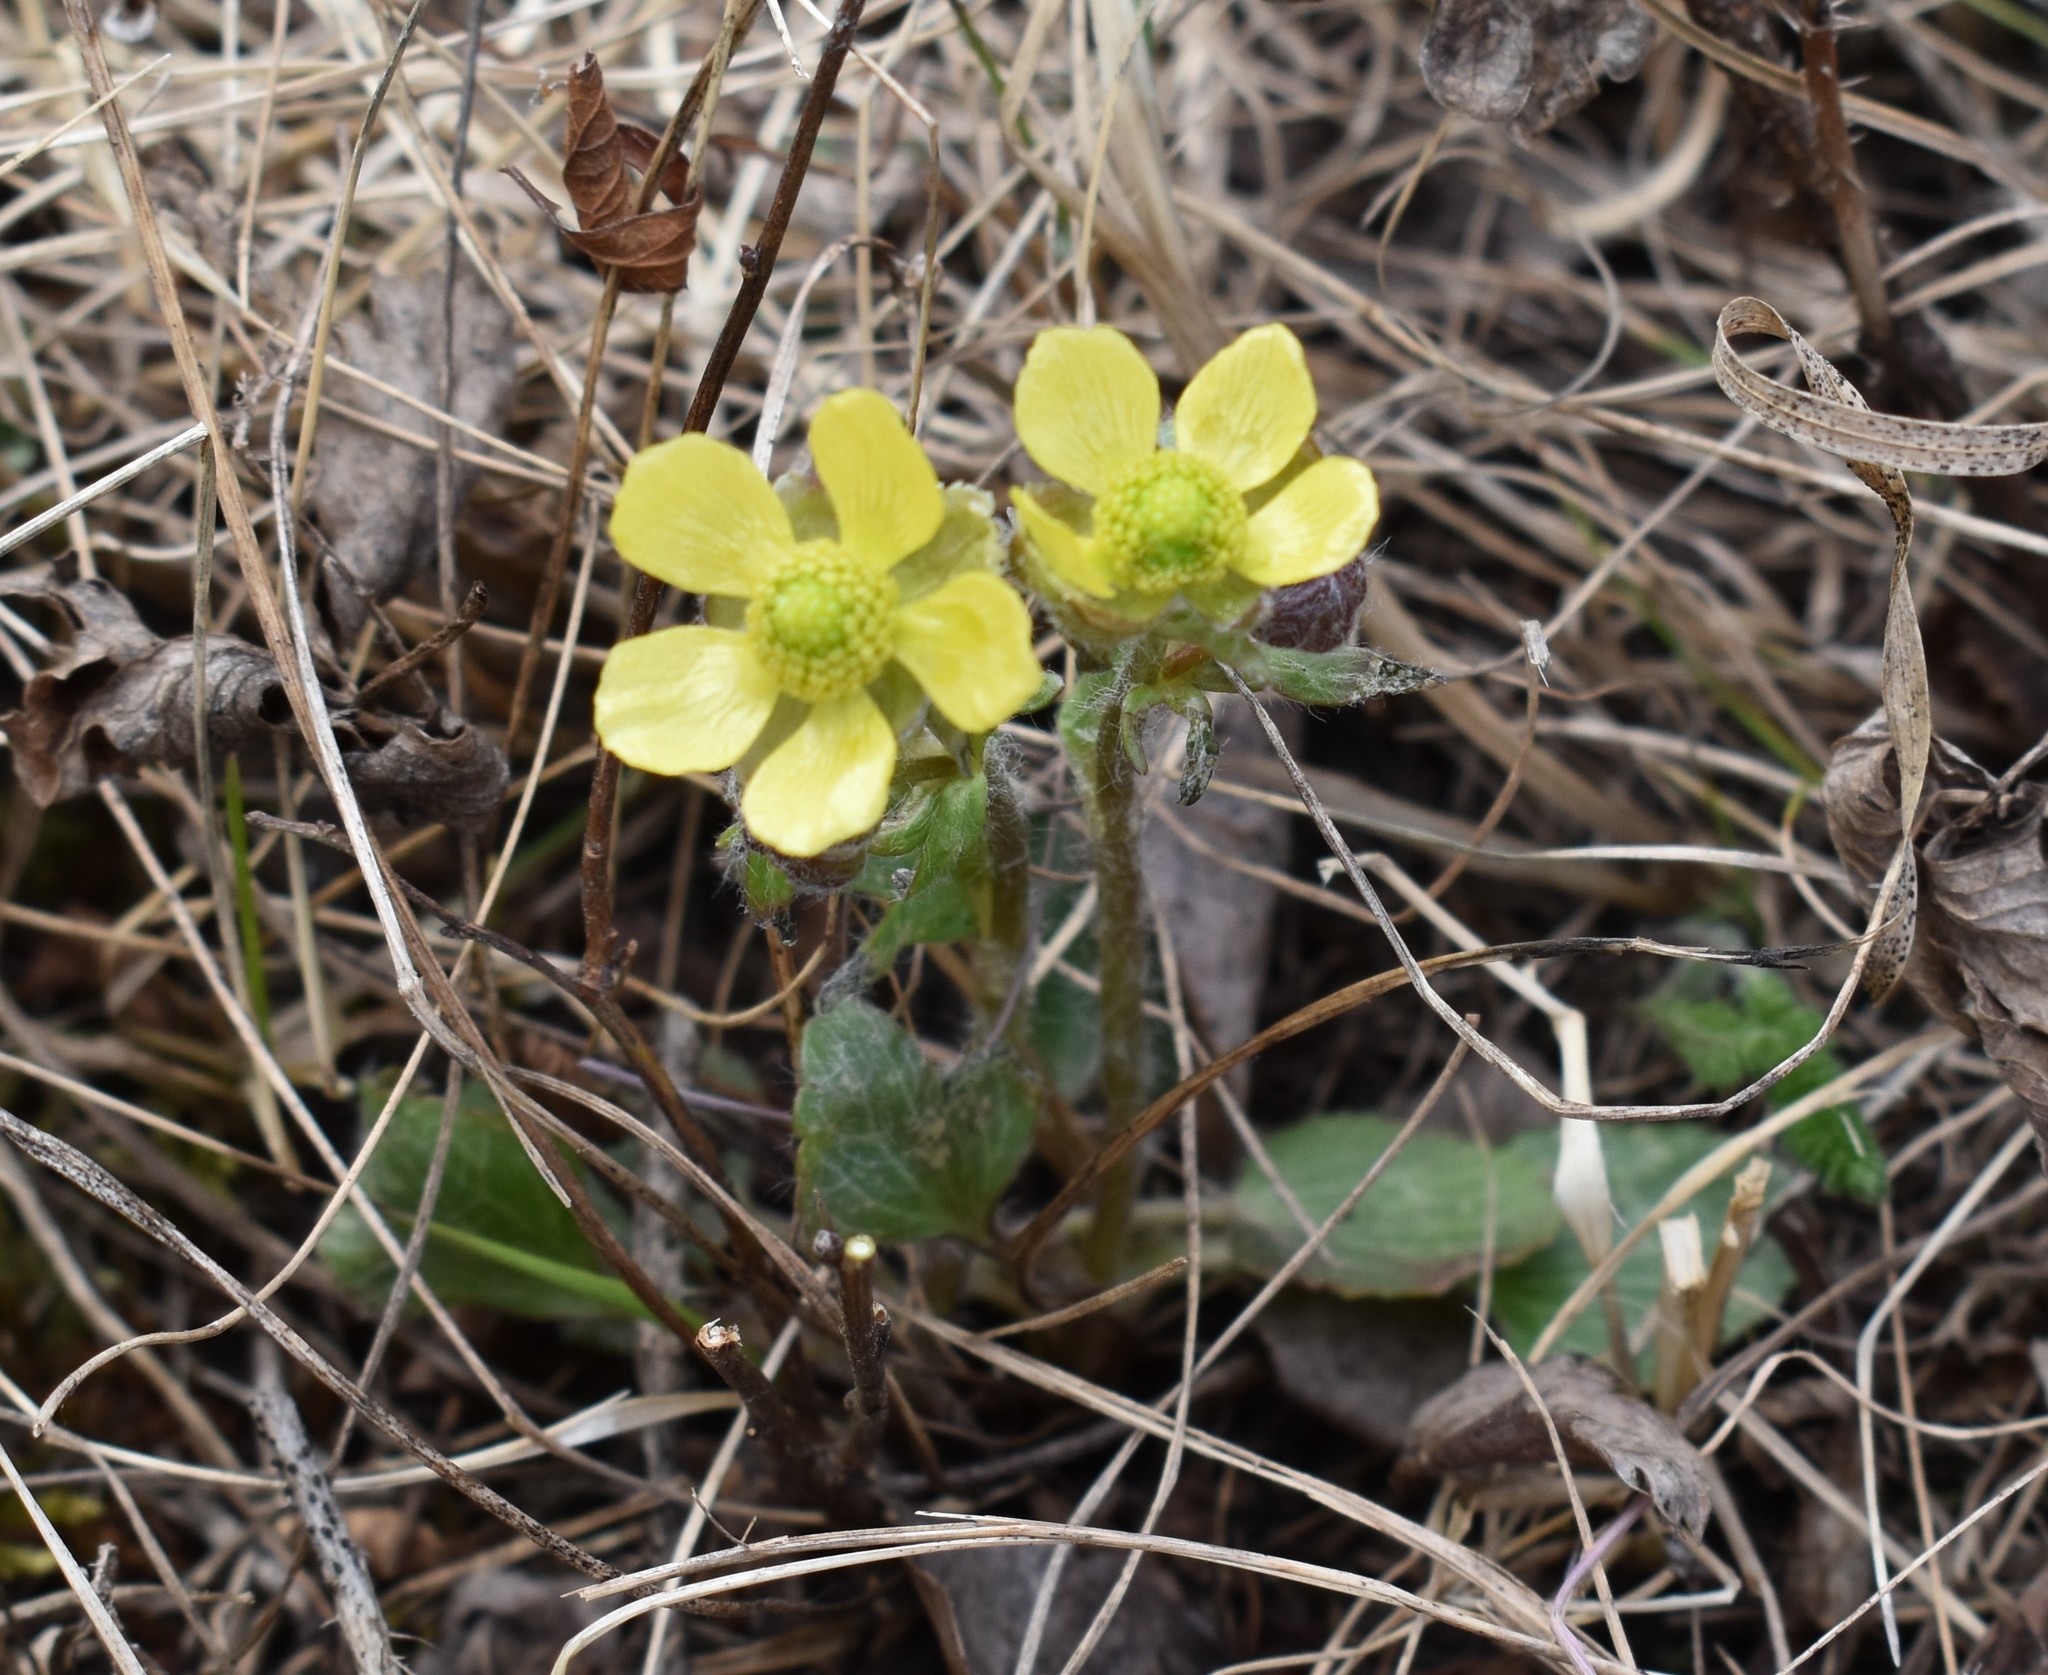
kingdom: Plantae
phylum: Tracheophyta
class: Magnoliopsida
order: Ranunculales
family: Ranunculaceae
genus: Ranunculus
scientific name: Ranunculus rhomboideus
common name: Prairie buttercup
